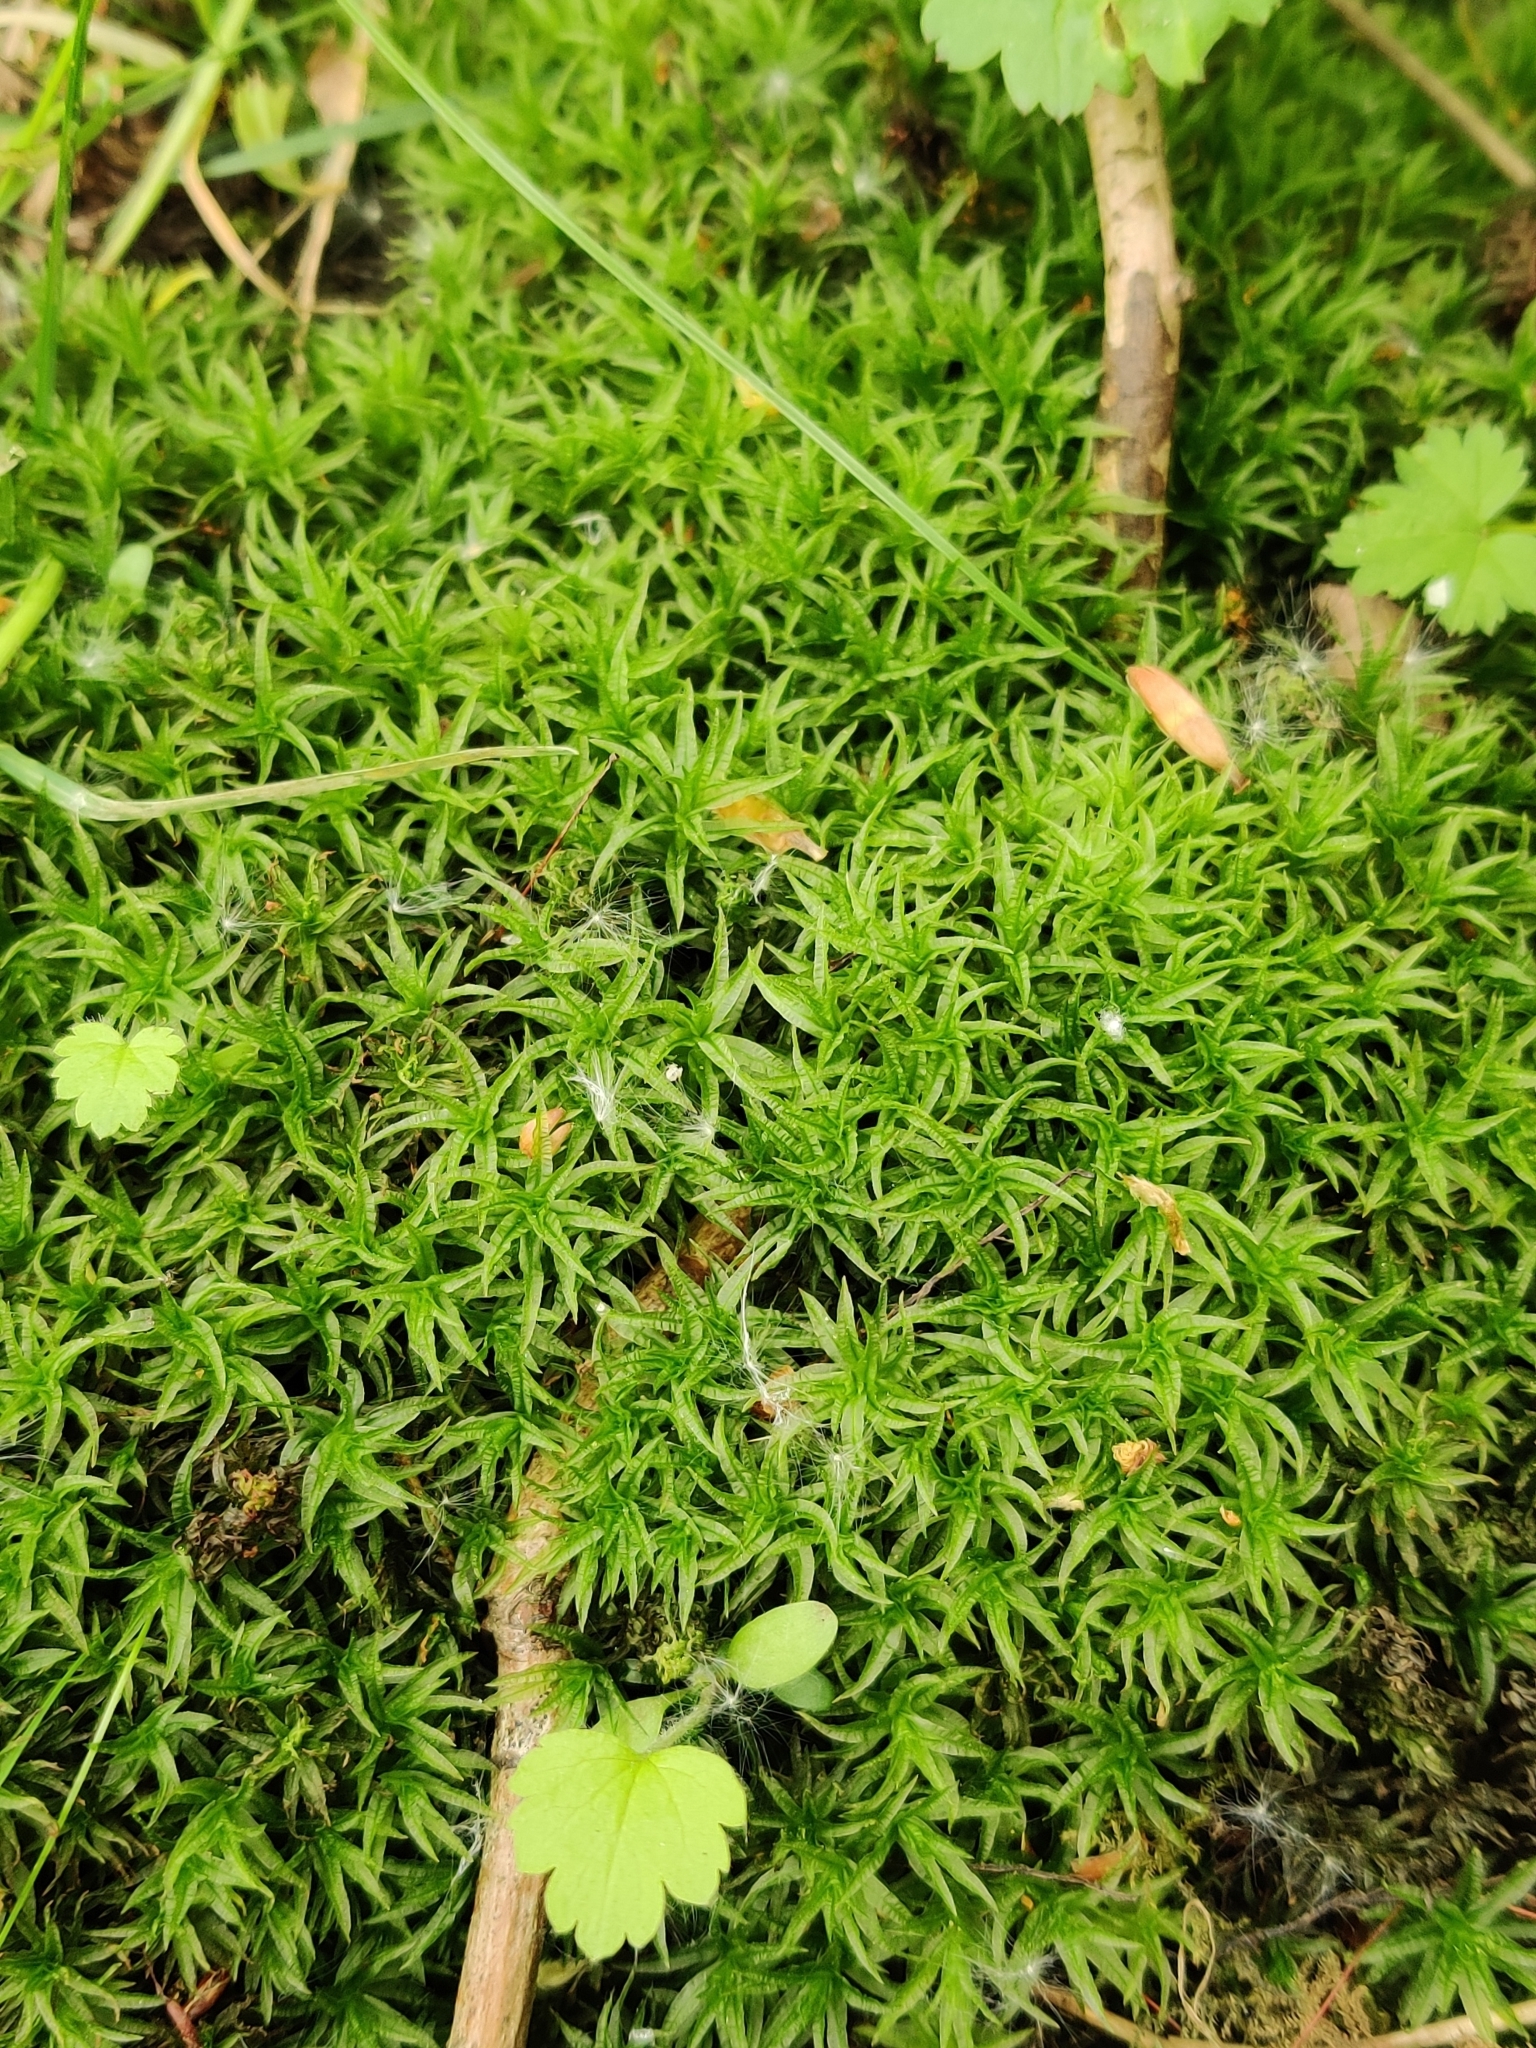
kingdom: Plantae
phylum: Bryophyta
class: Polytrichopsida
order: Polytrichales
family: Polytrichaceae
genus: Atrichum
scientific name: Atrichum undulatum
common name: Common smoothcap
